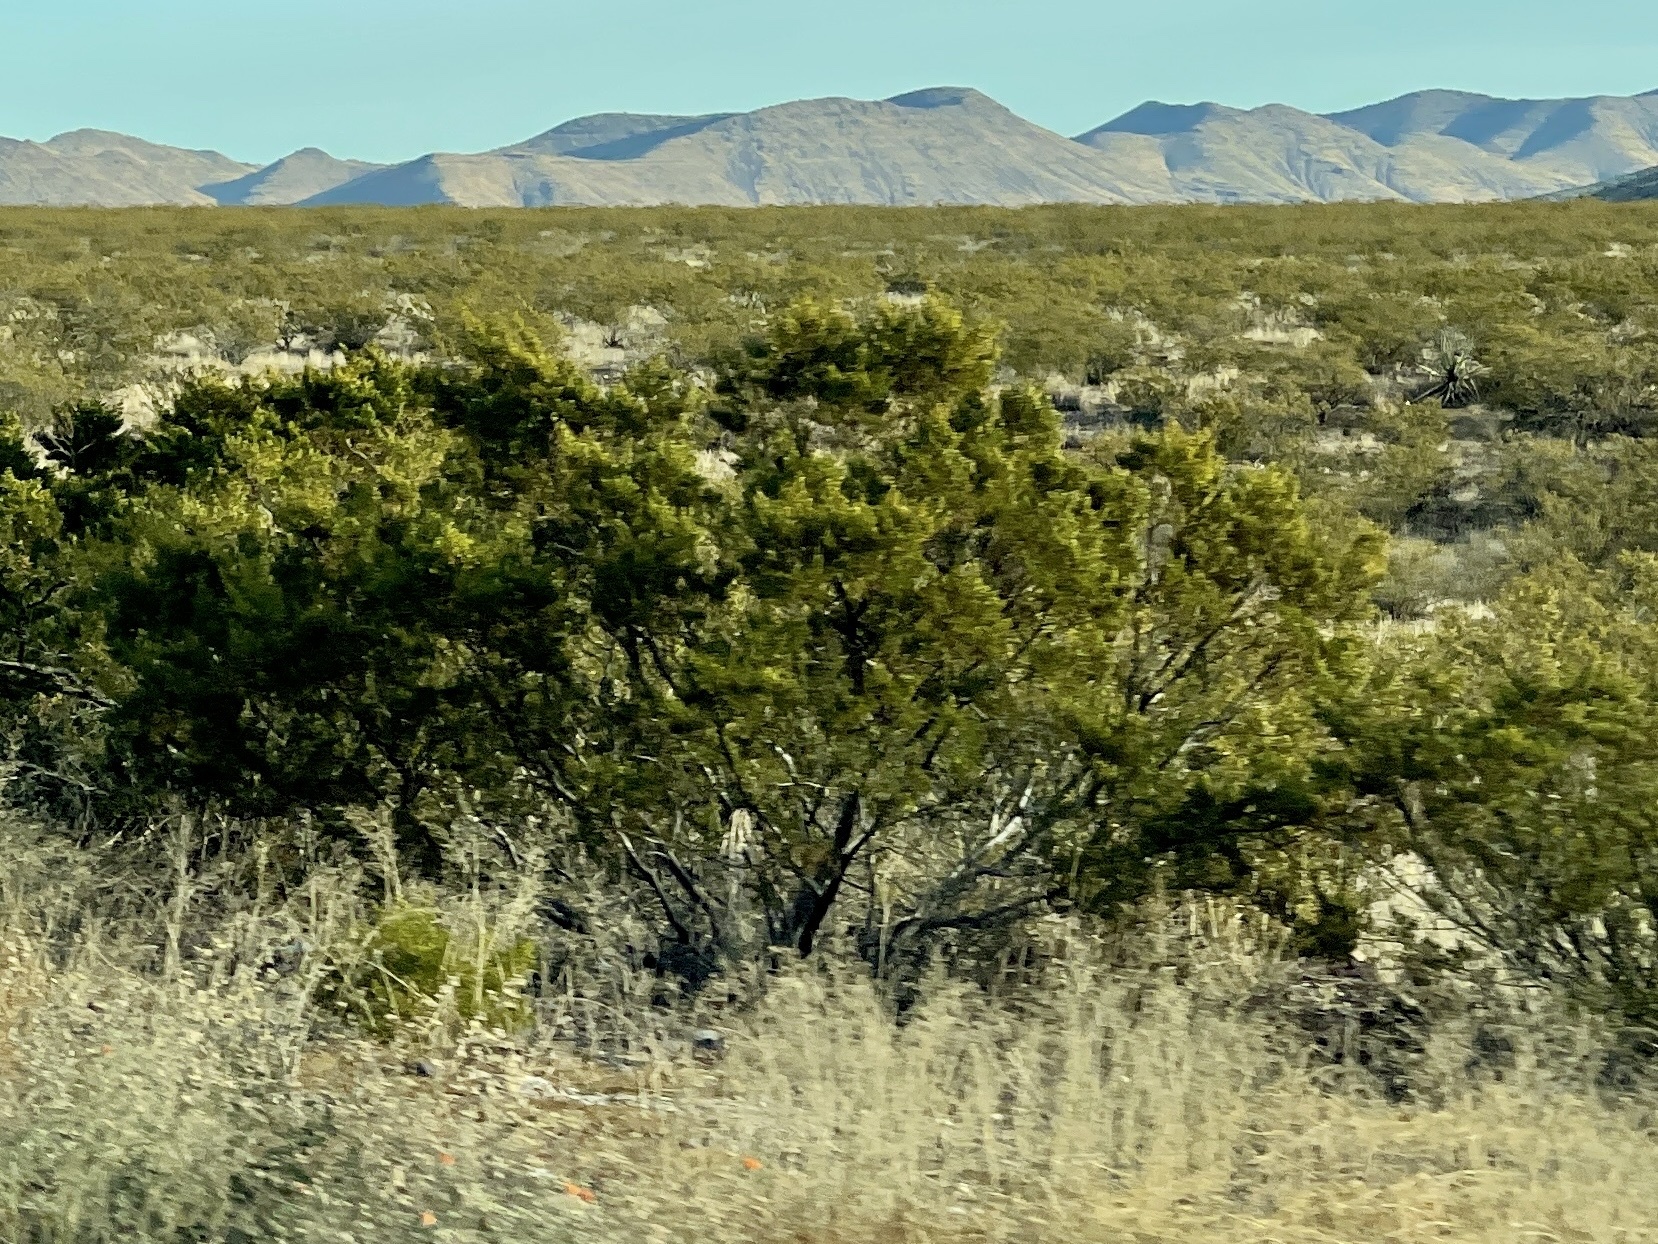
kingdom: Plantae
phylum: Tracheophyta
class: Magnoliopsida
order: Zygophyllales
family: Zygophyllaceae
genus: Larrea
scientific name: Larrea tridentata
